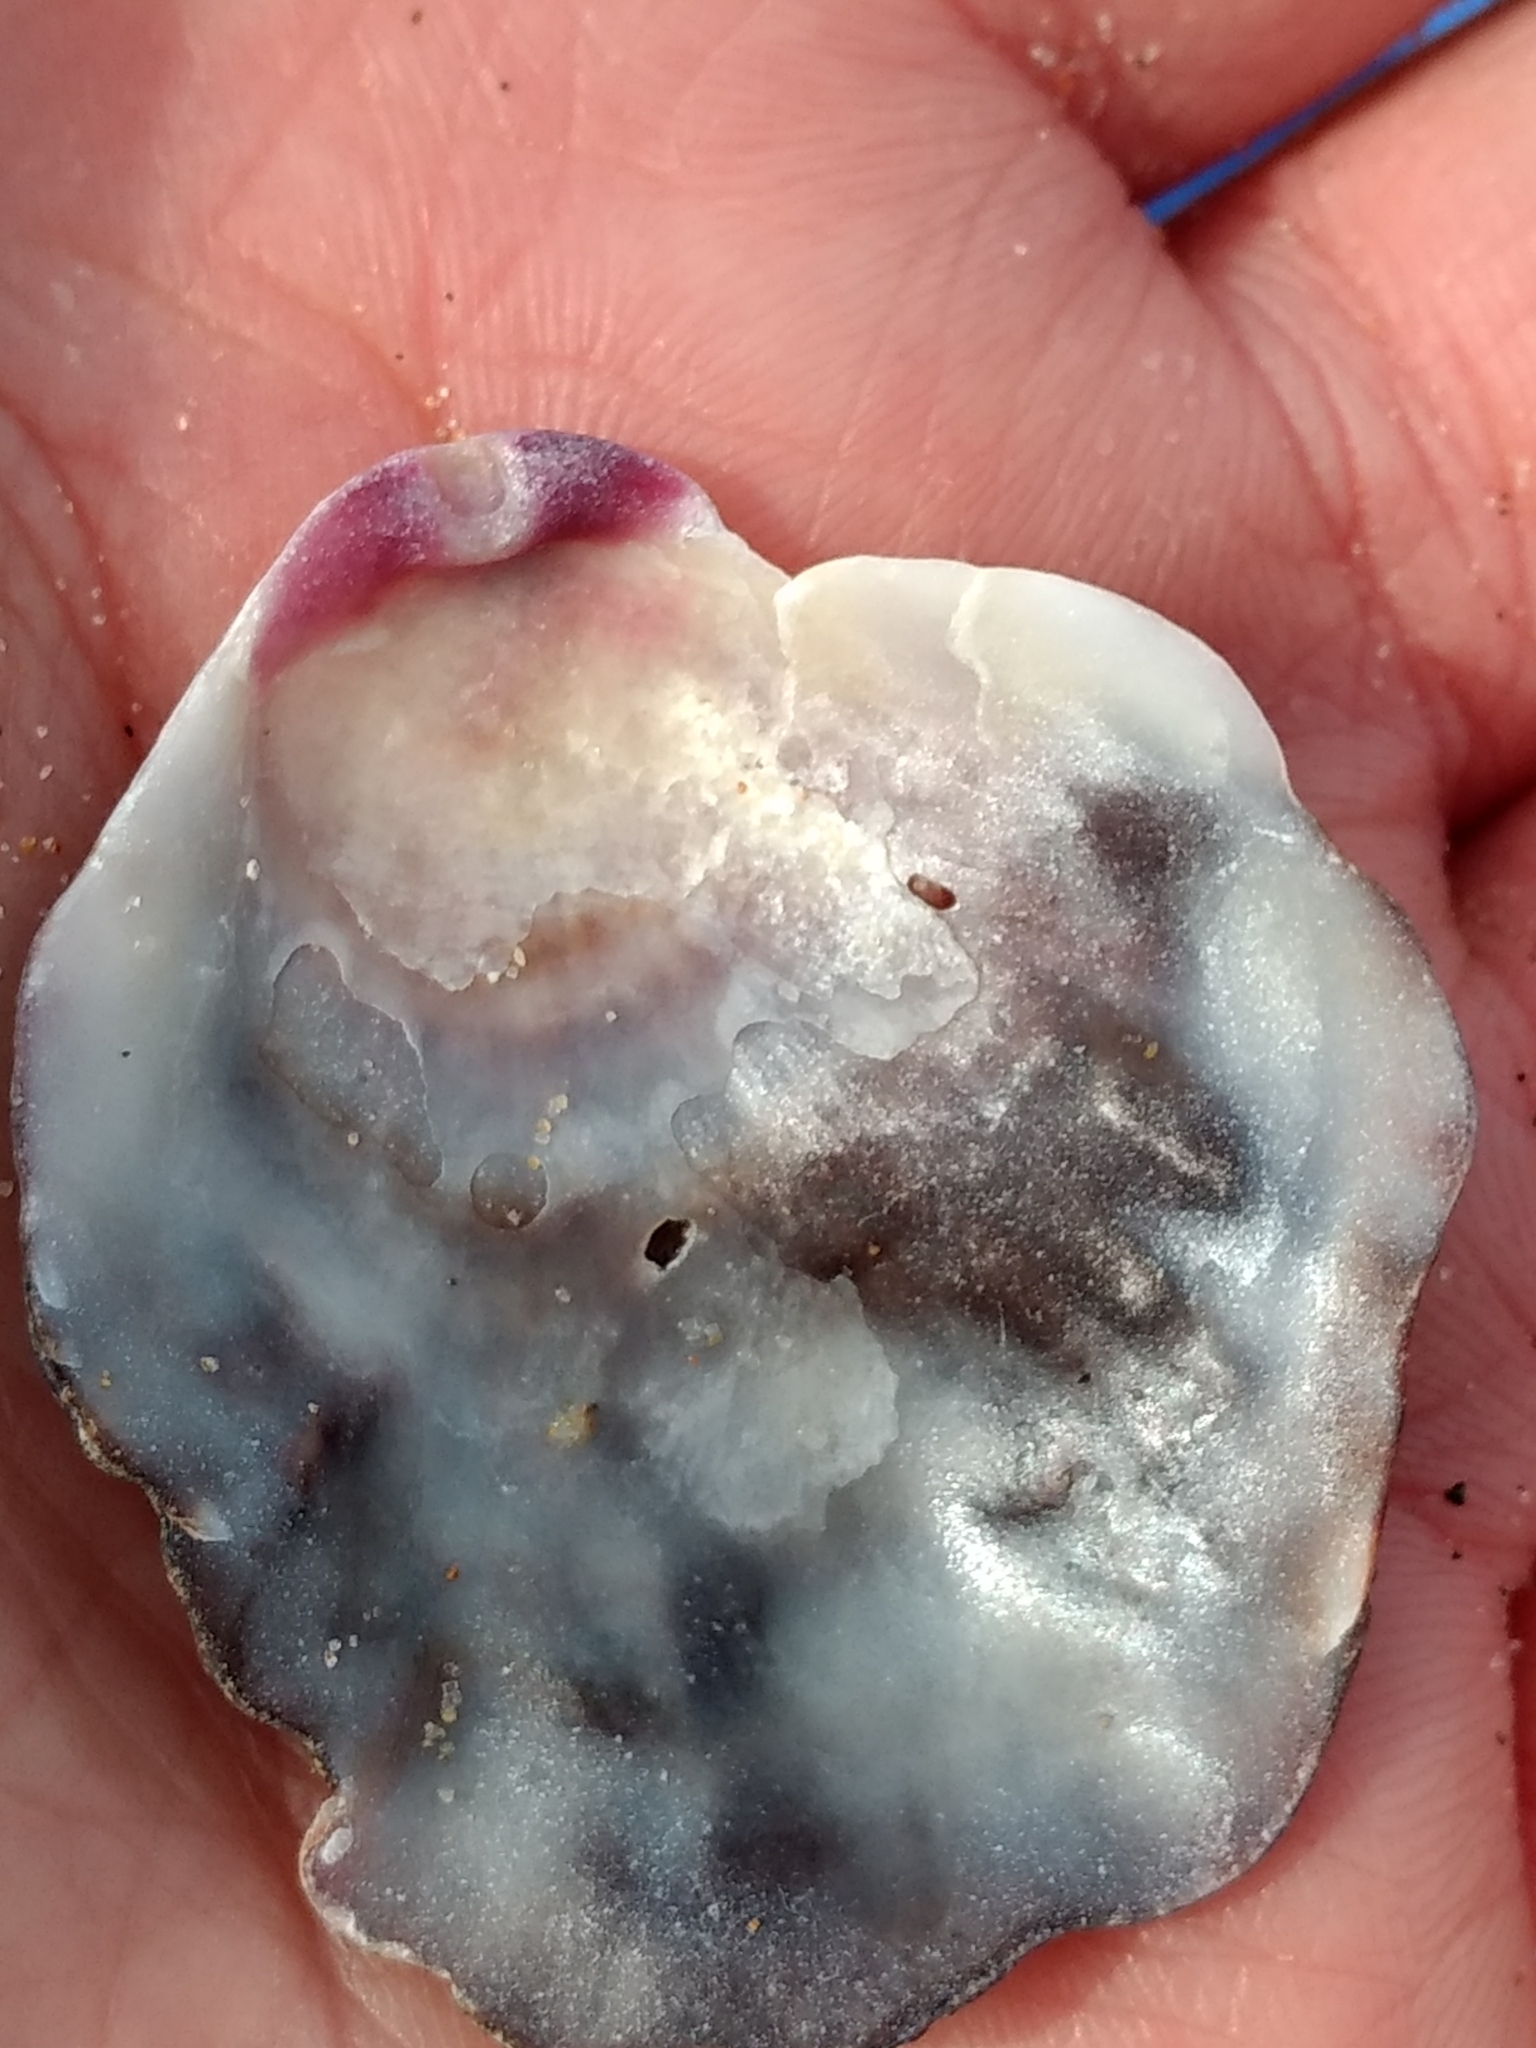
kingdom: Animalia
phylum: Mollusca
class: Bivalvia
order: Pectinida
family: Pectinidae
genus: Crassadoma
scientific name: Crassadoma gigantea
